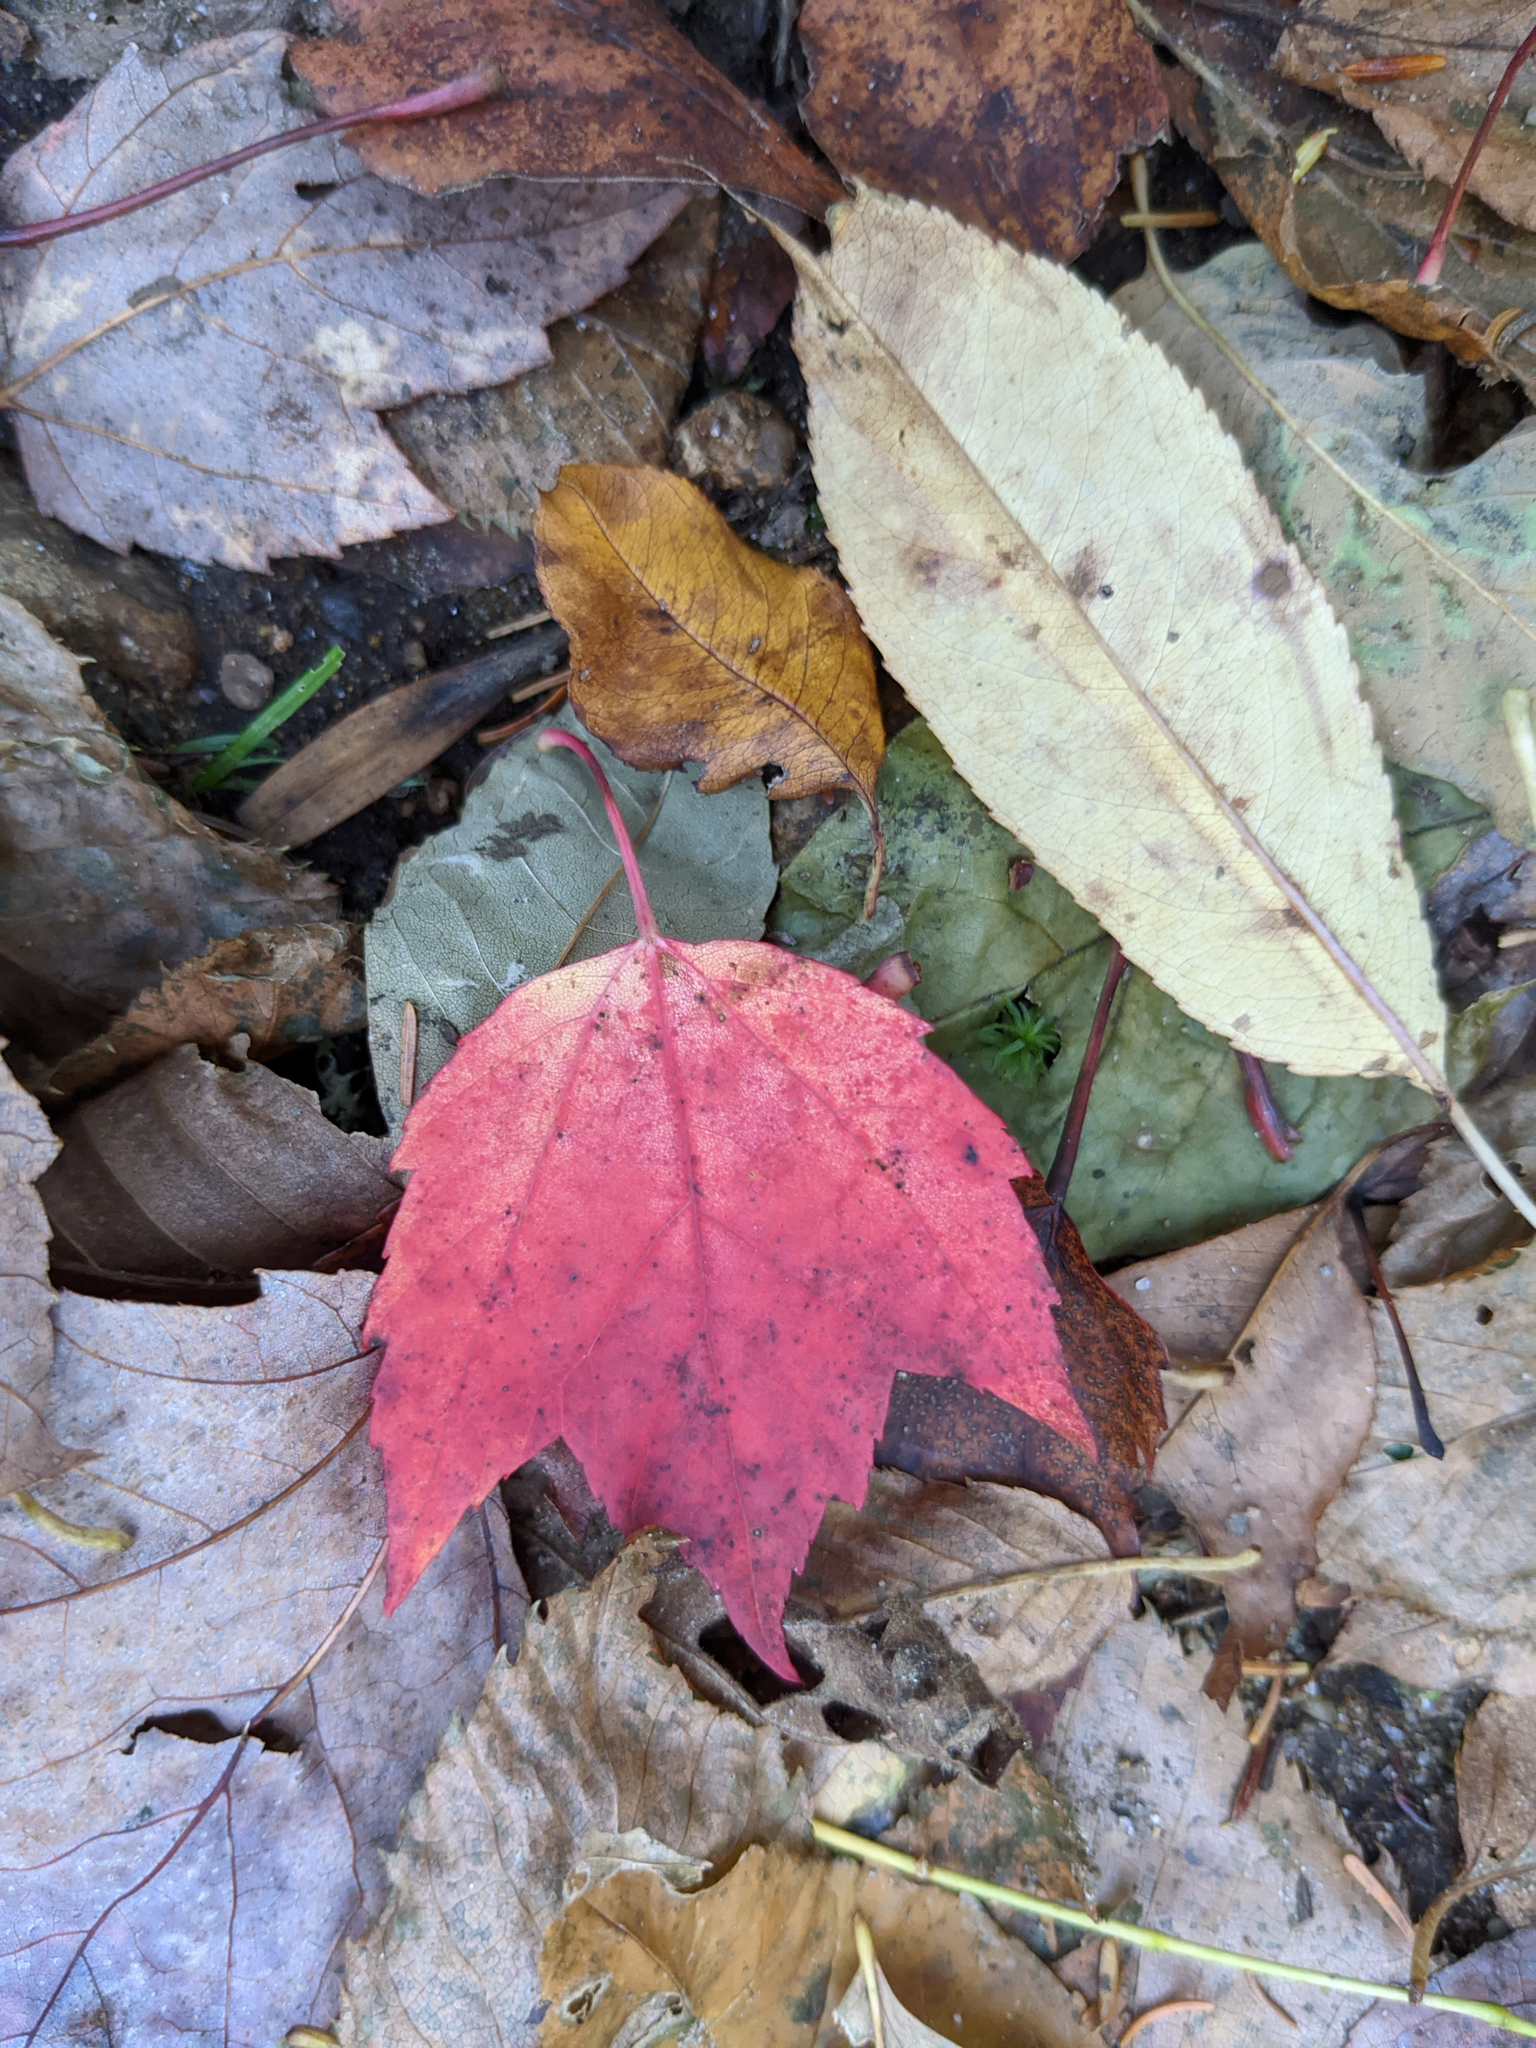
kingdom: Plantae
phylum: Tracheophyta
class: Magnoliopsida
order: Sapindales
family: Sapindaceae
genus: Acer
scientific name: Acer rubrum
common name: Red maple
